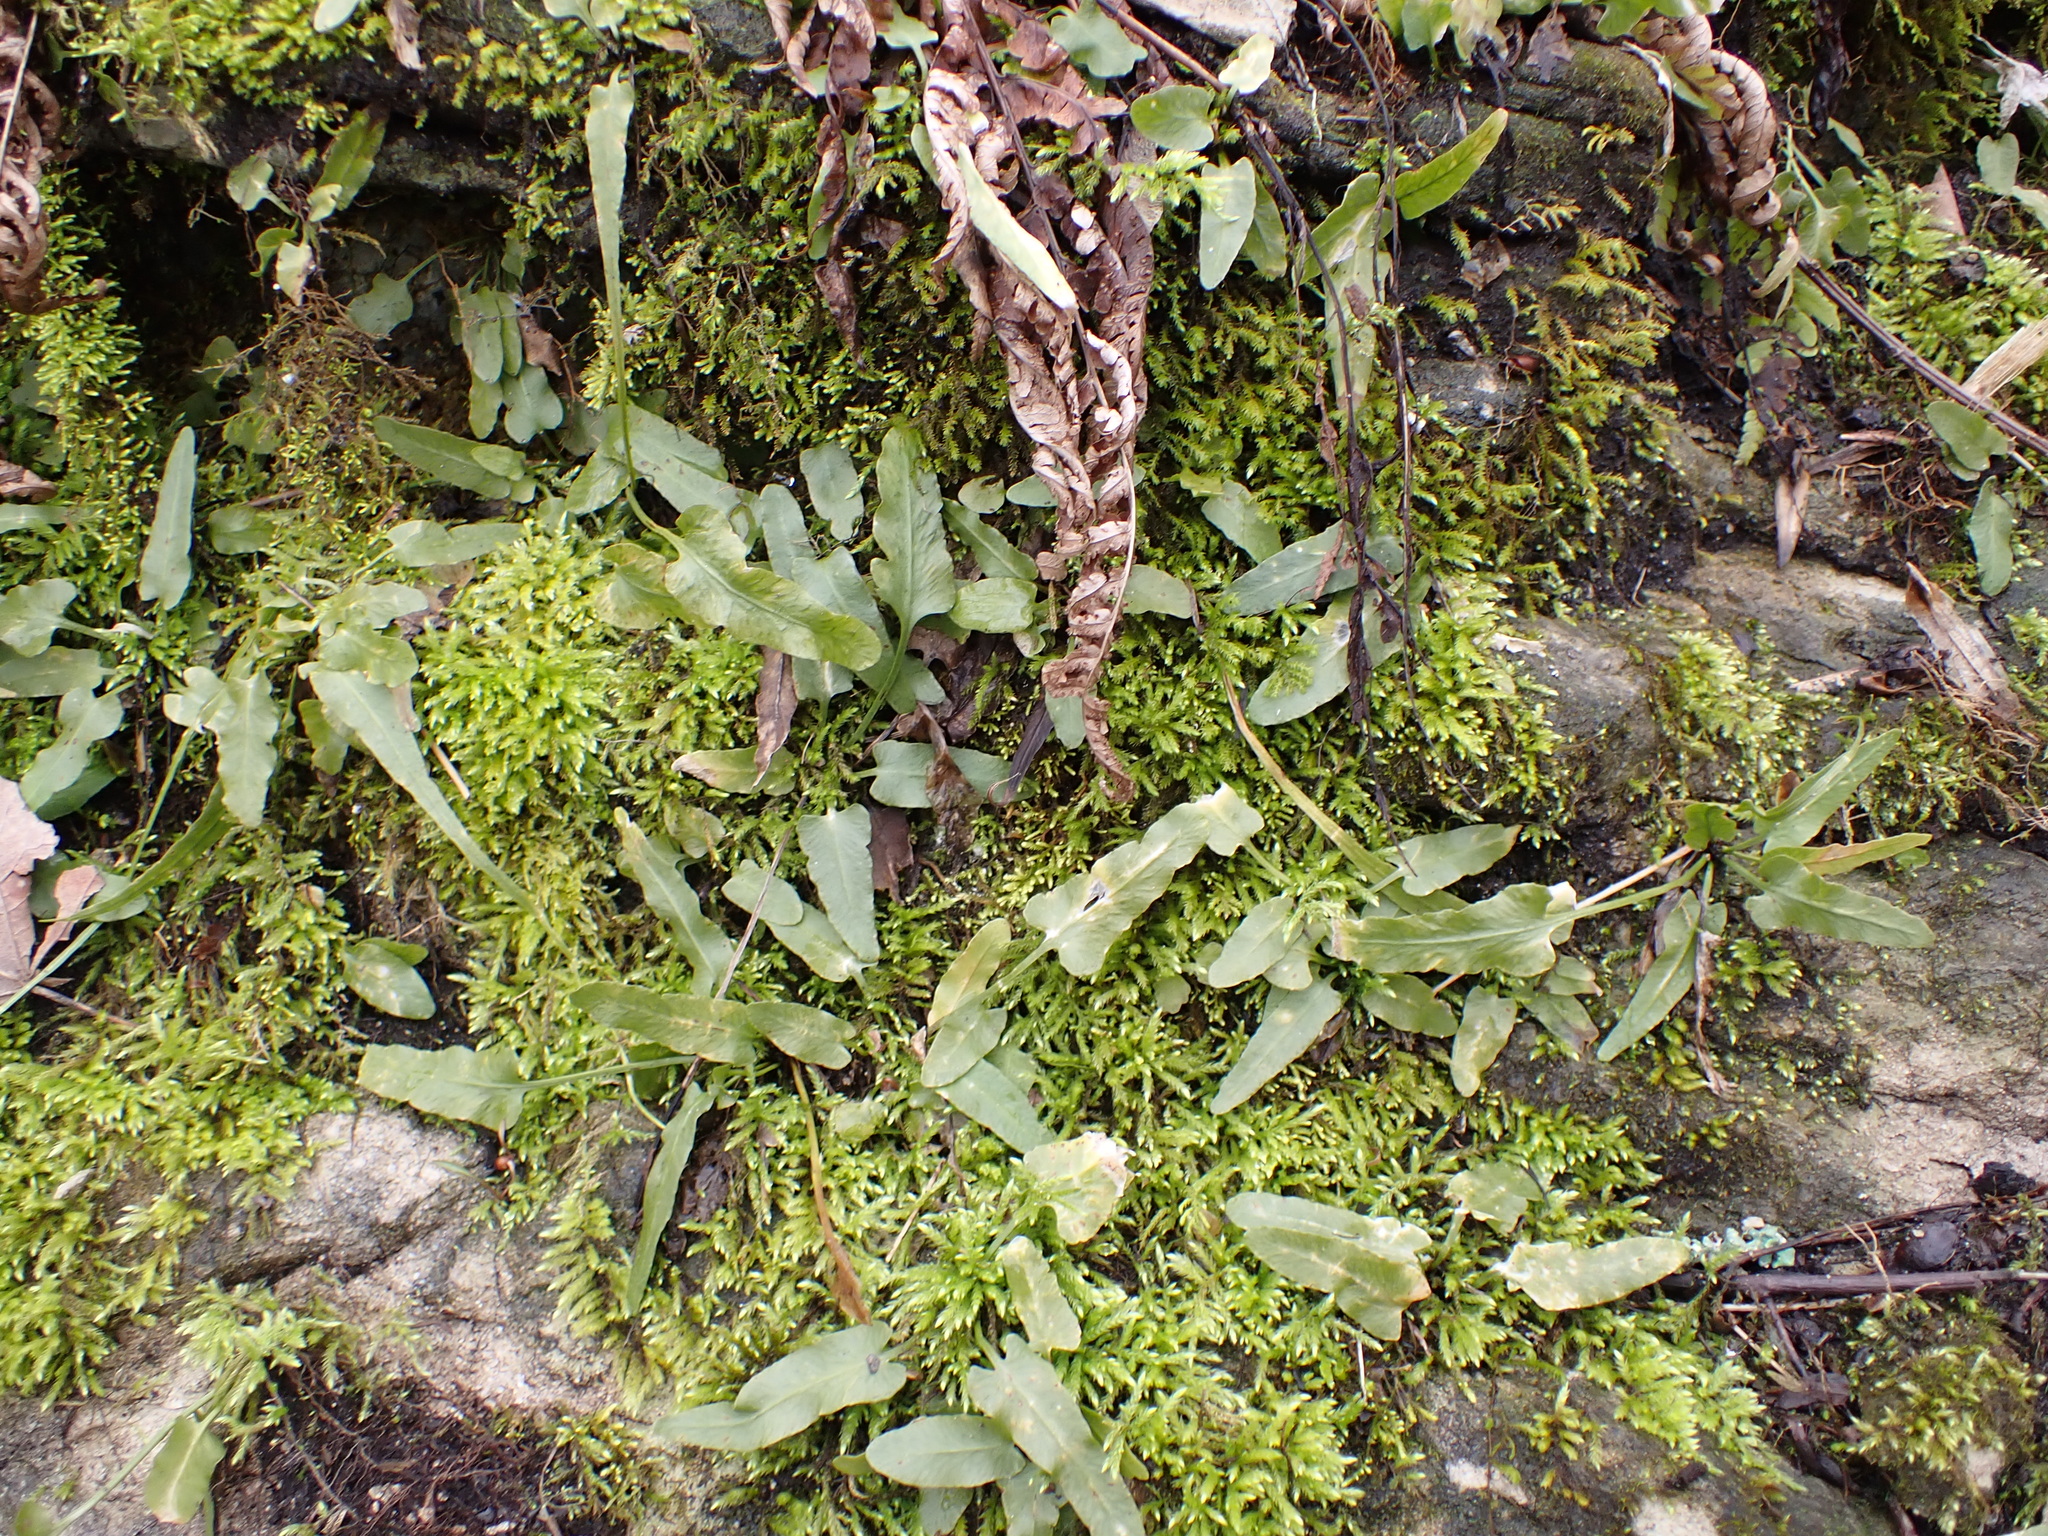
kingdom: Plantae
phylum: Tracheophyta
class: Polypodiopsida
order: Polypodiales
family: Aspleniaceae
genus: Asplenium
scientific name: Asplenium rhizophyllum
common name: Walking fern
